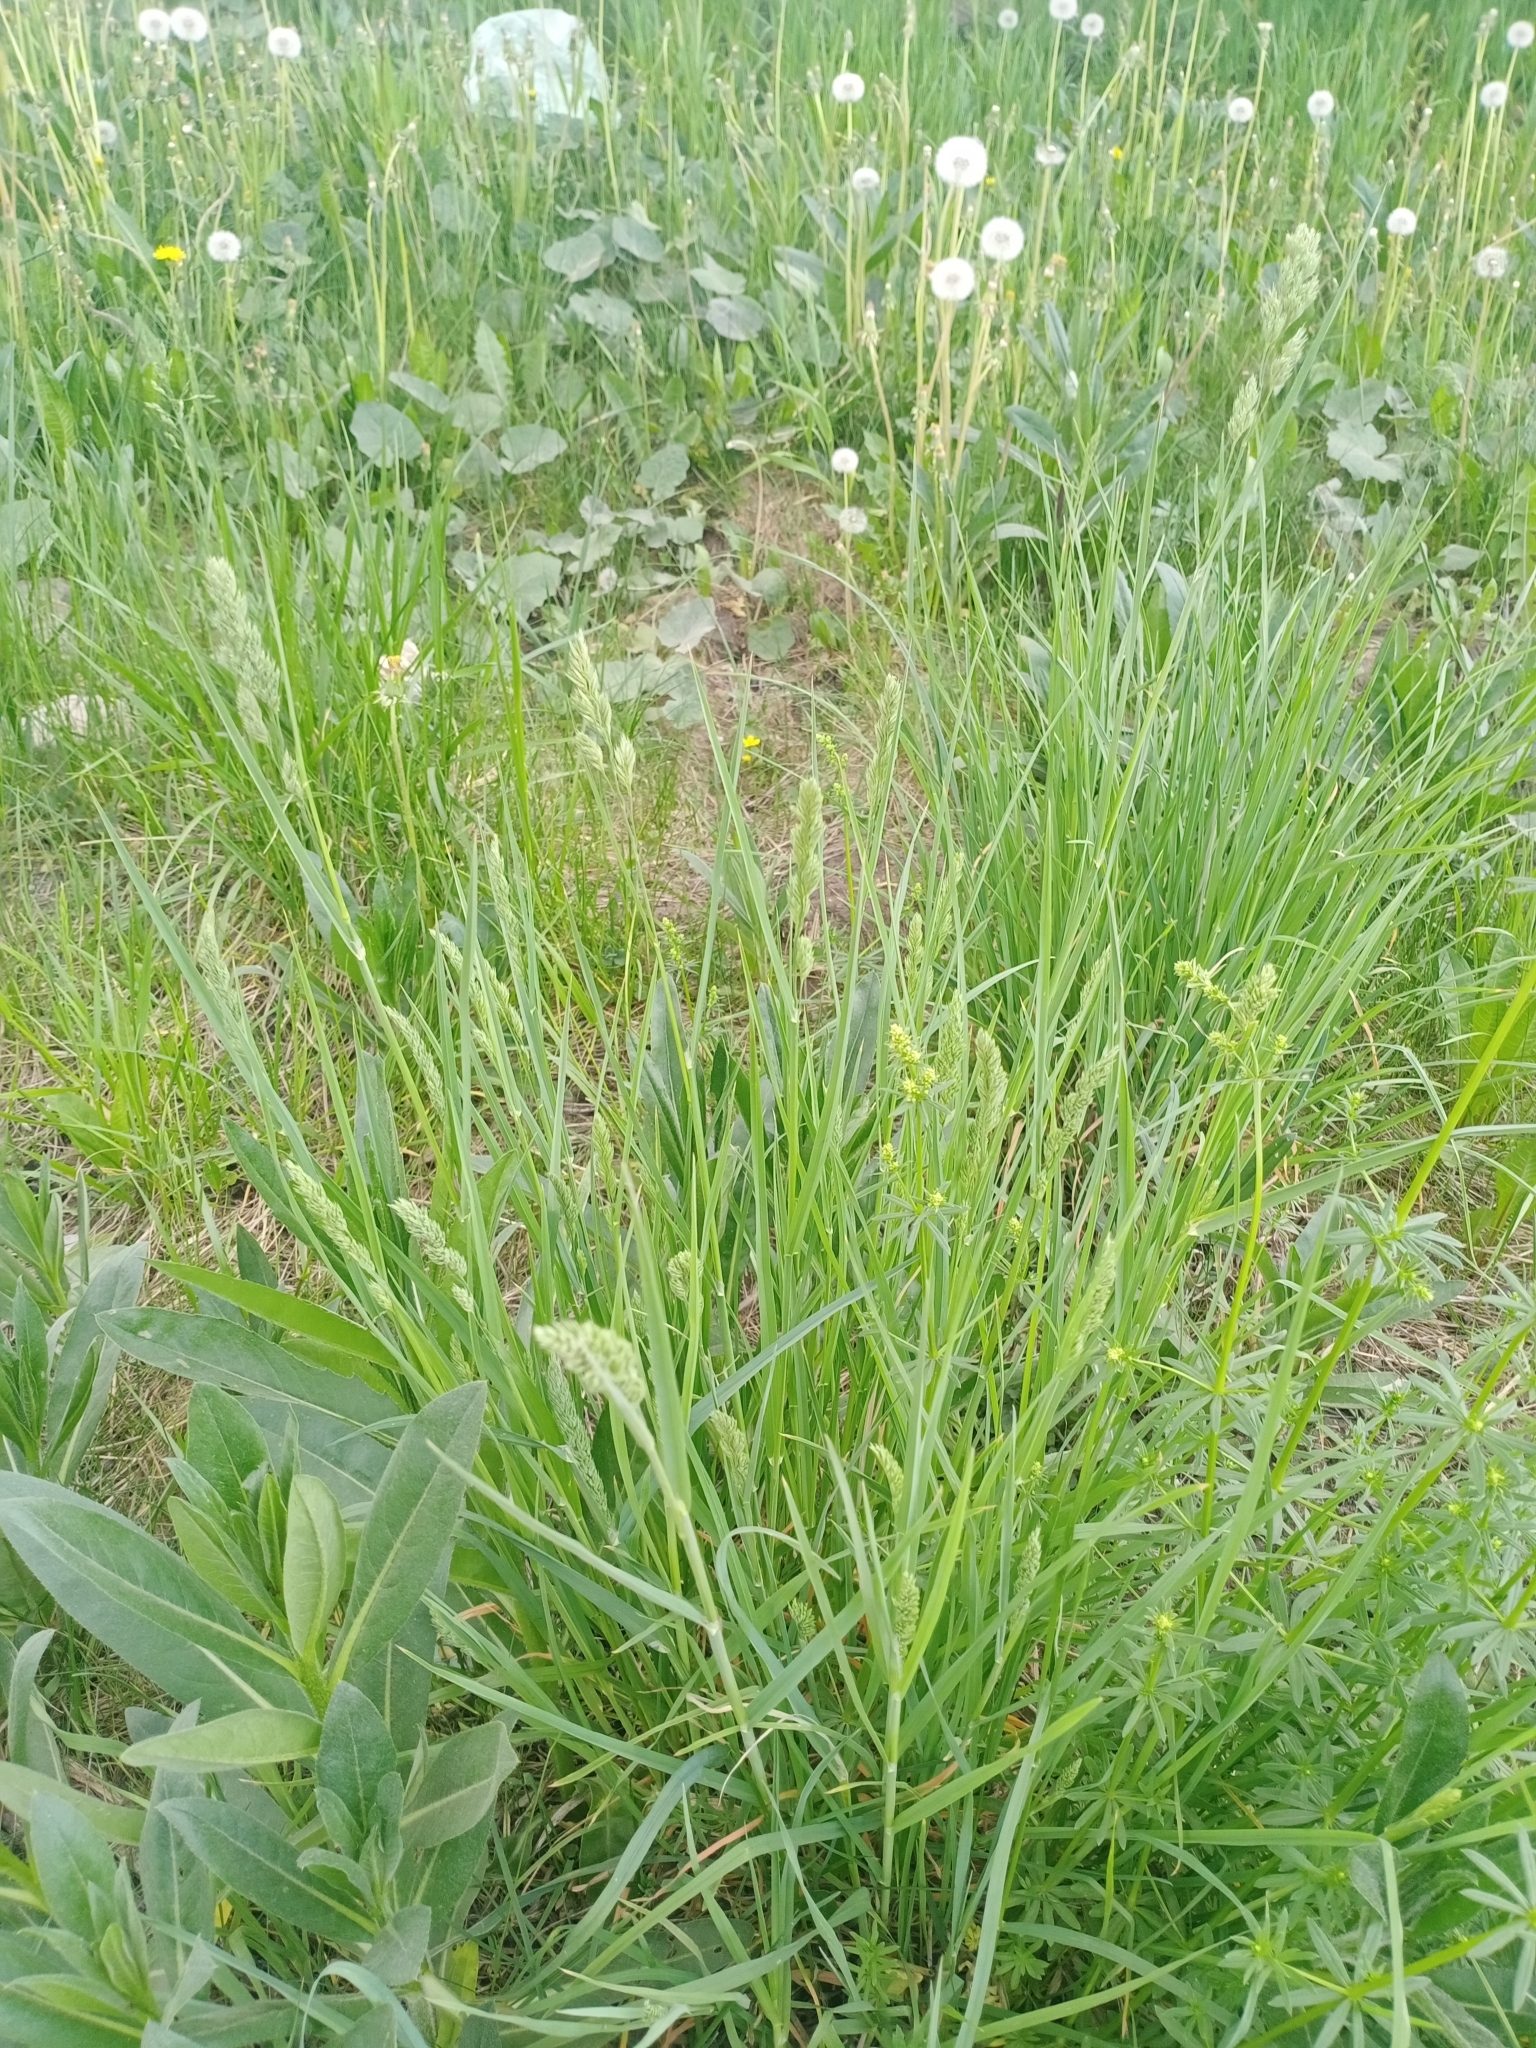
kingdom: Plantae
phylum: Tracheophyta
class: Liliopsida
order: Poales
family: Poaceae
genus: Dactylis
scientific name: Dactylis glomerata
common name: Orchardgrass
